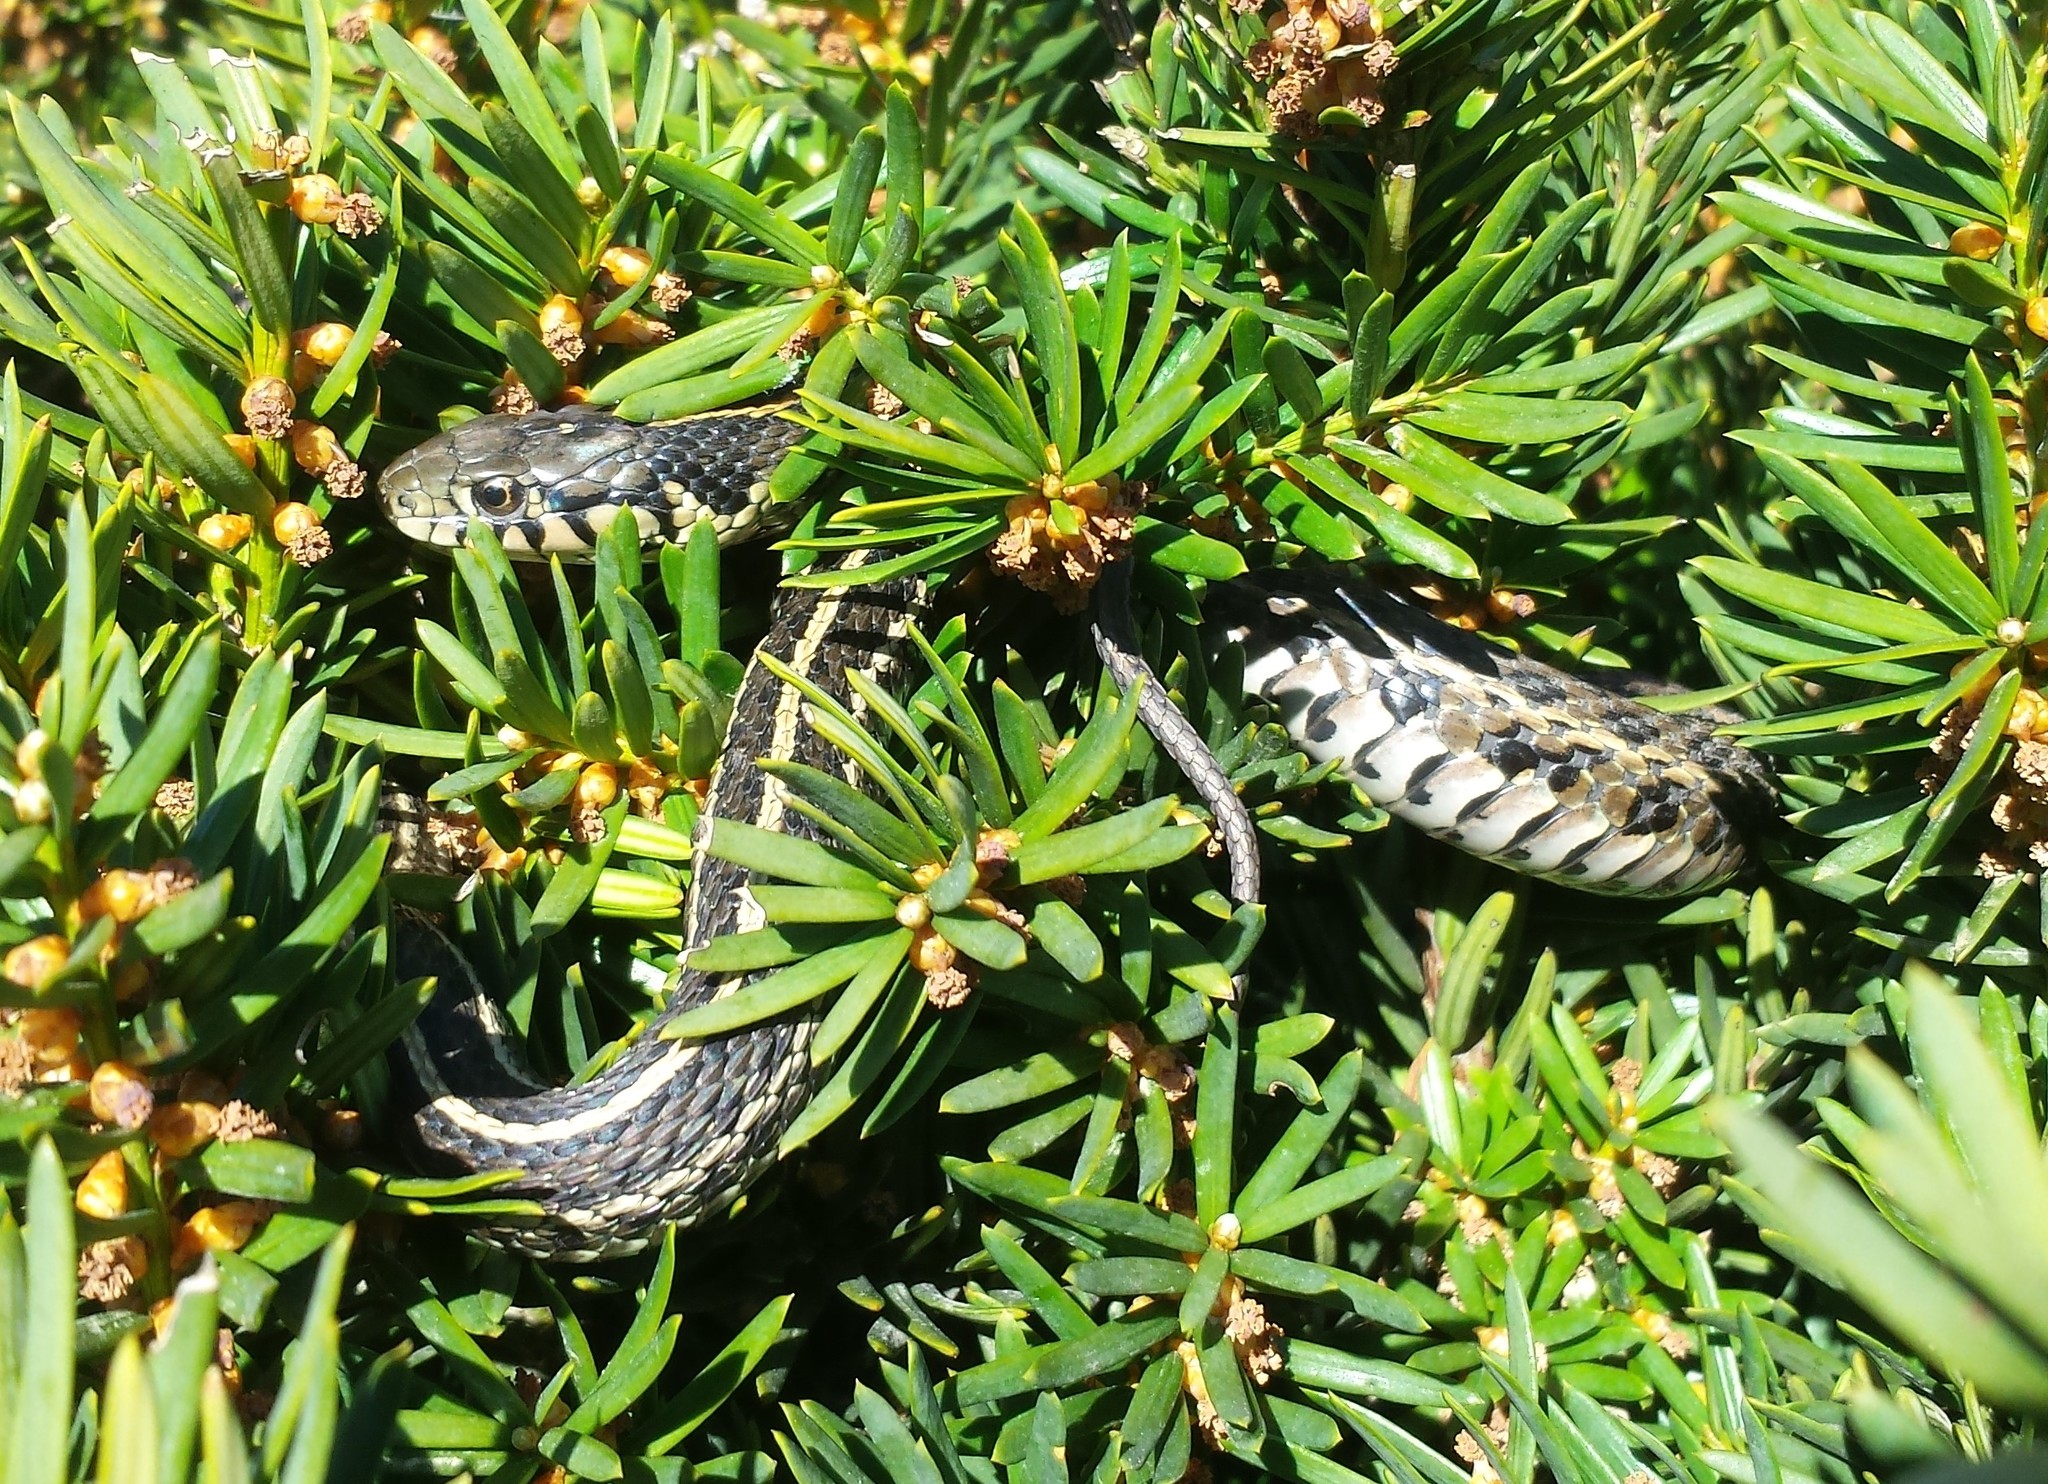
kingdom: Animalia
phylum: Chordata
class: Squamata
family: Colubridae
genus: Thamnophis
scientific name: Thamnophis radix
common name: Plains garter snake
